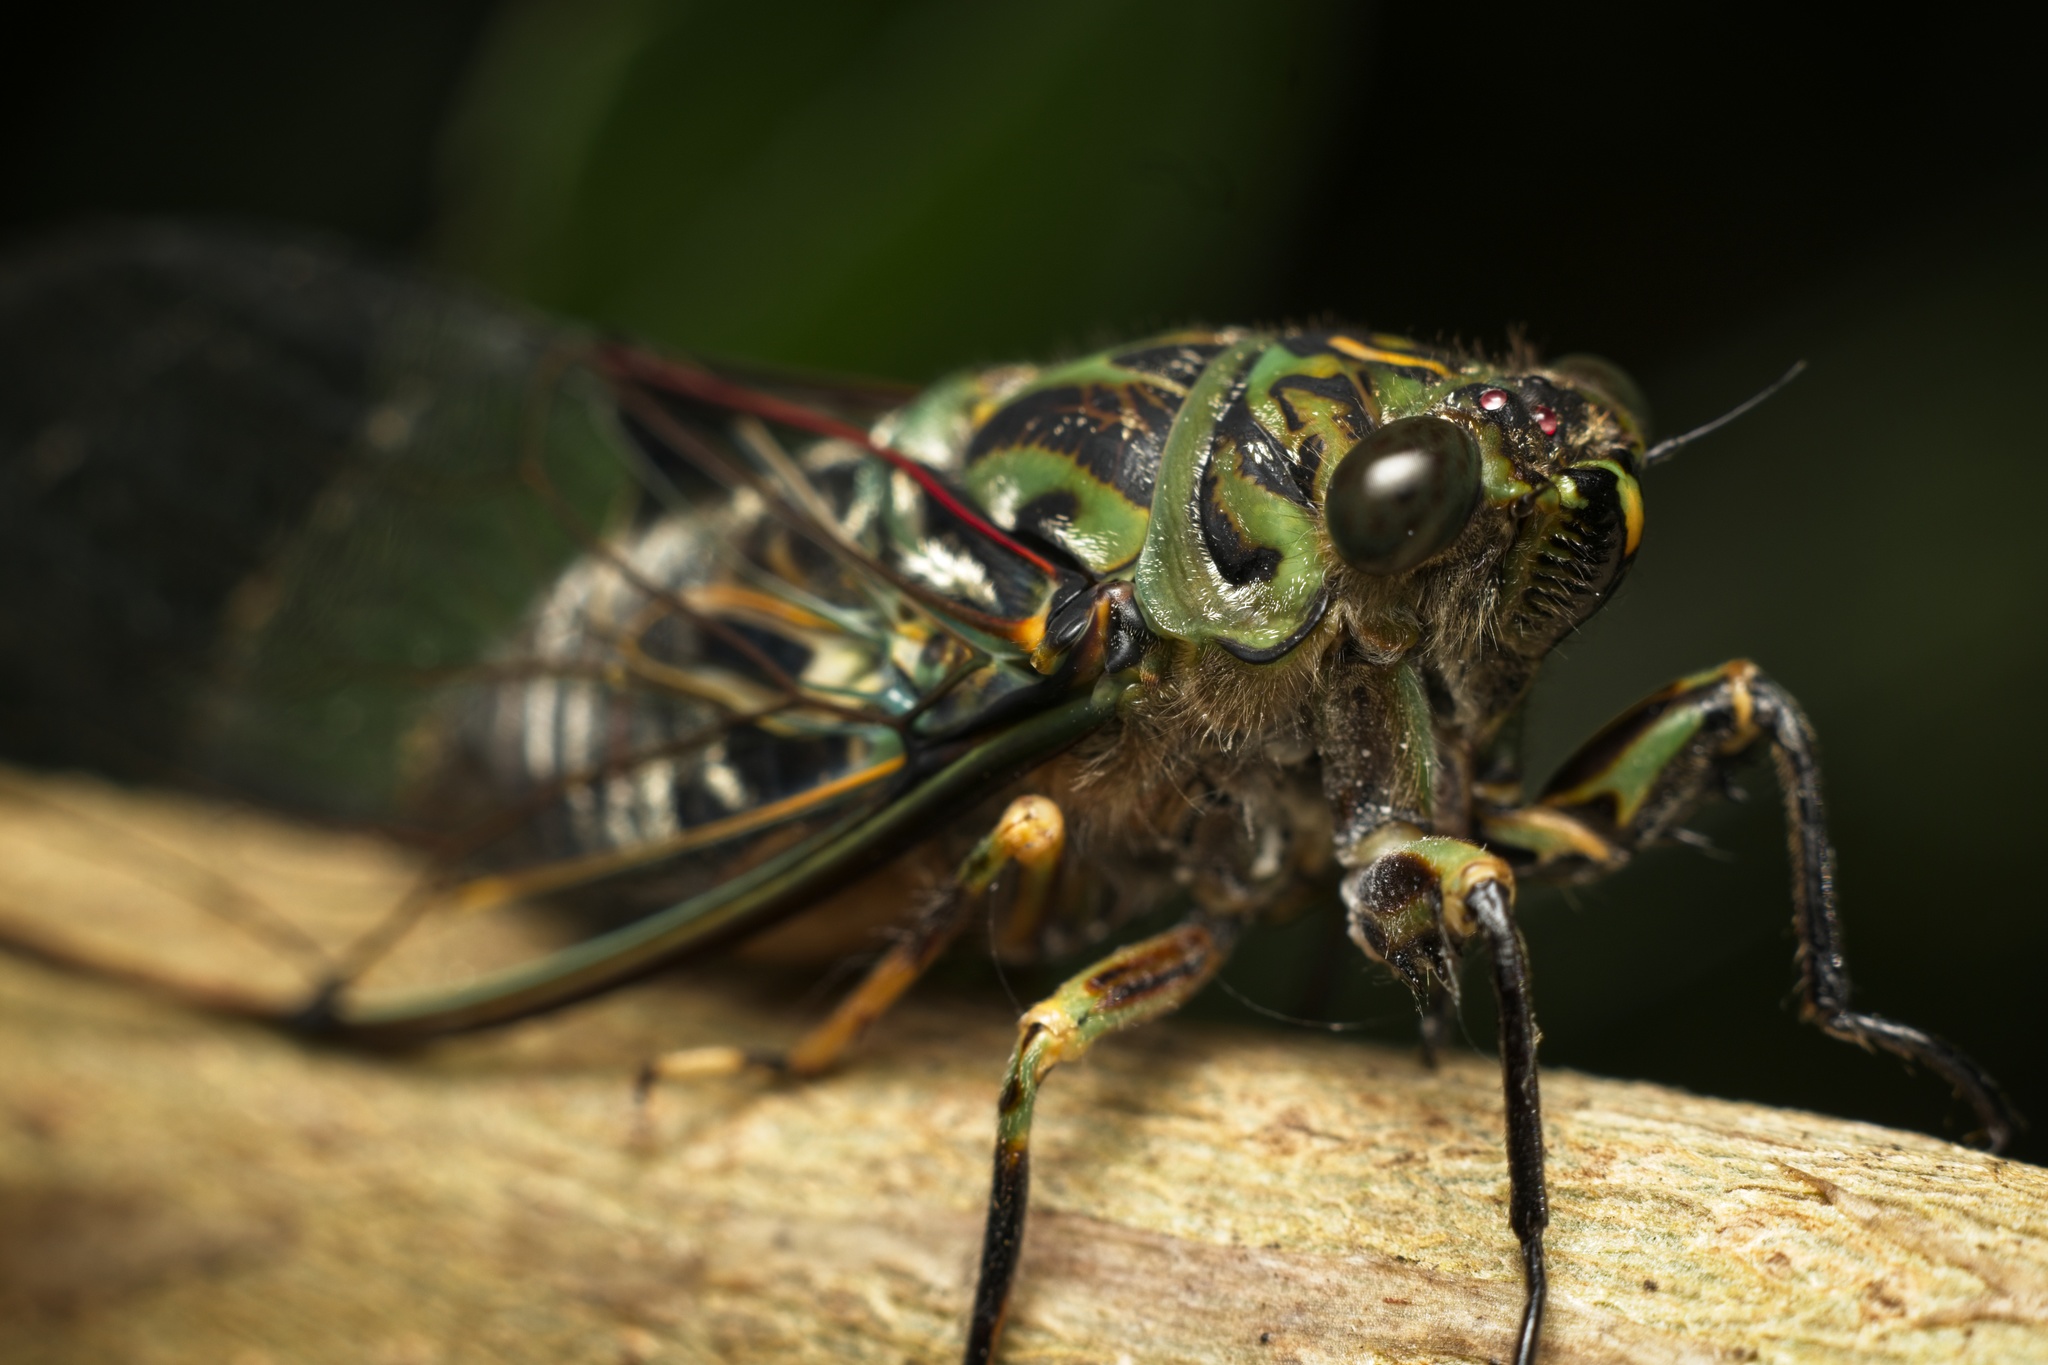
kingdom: Animalia
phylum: Arthropoda
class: Insecta
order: Hemiptera
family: Cicadidae
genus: Amphipsalta
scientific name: Amphipsalta zelandica
